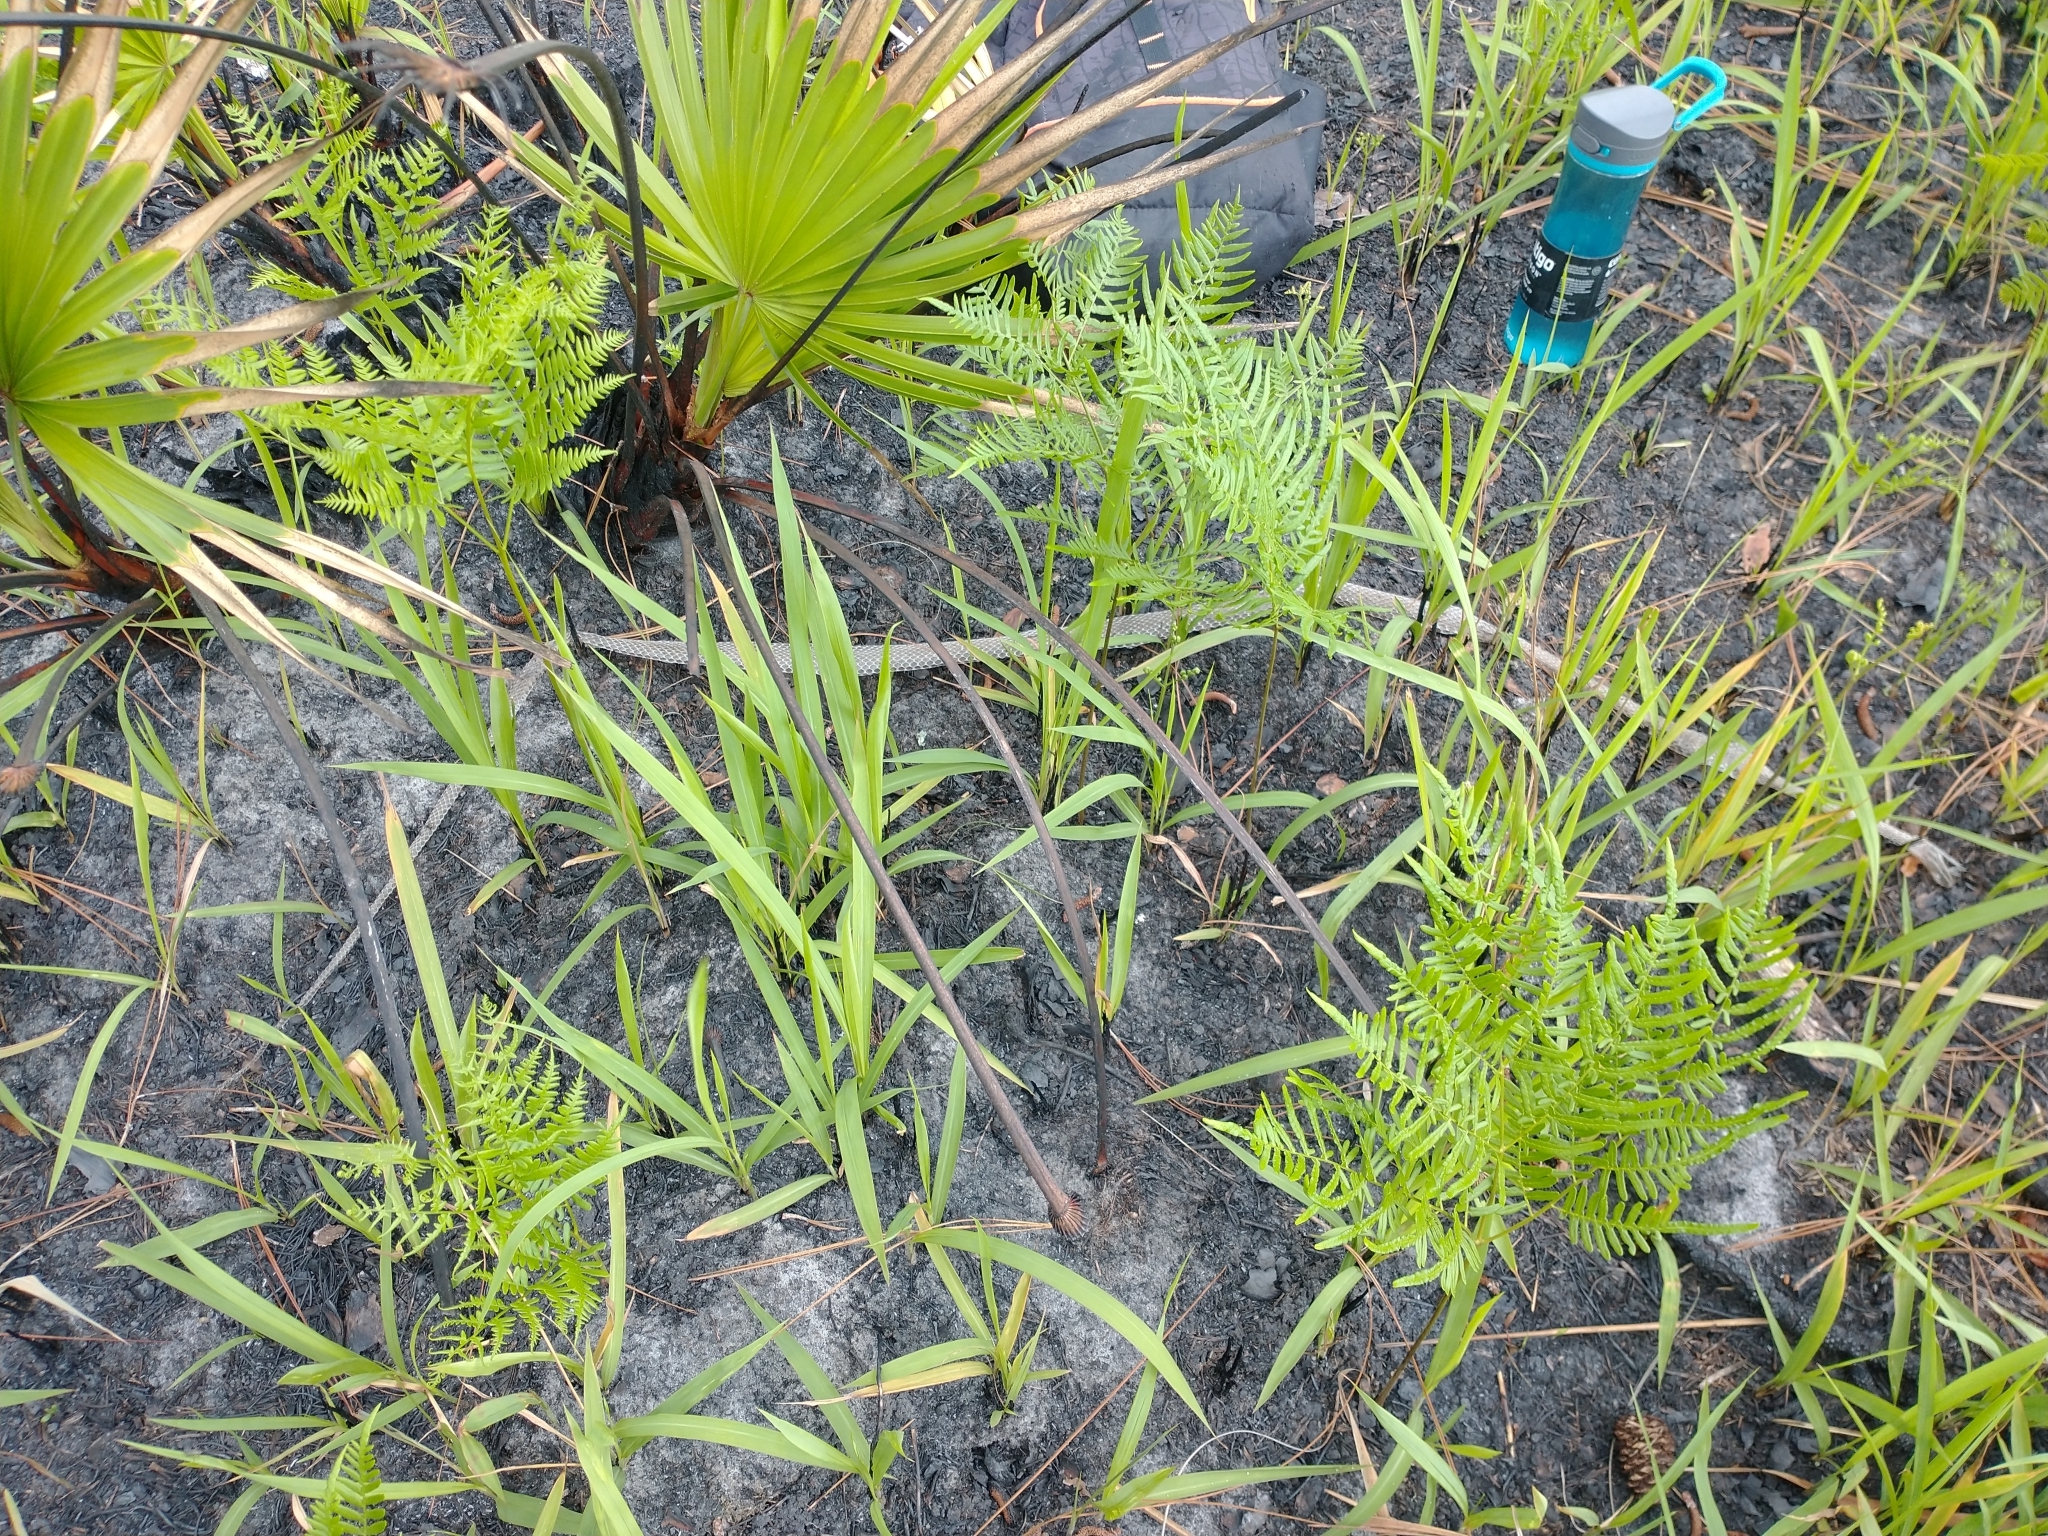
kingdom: Animalia
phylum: Chordata
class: Squamata
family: Colubridae
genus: Coluber
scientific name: Coluber constrictor
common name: Eastern racer
